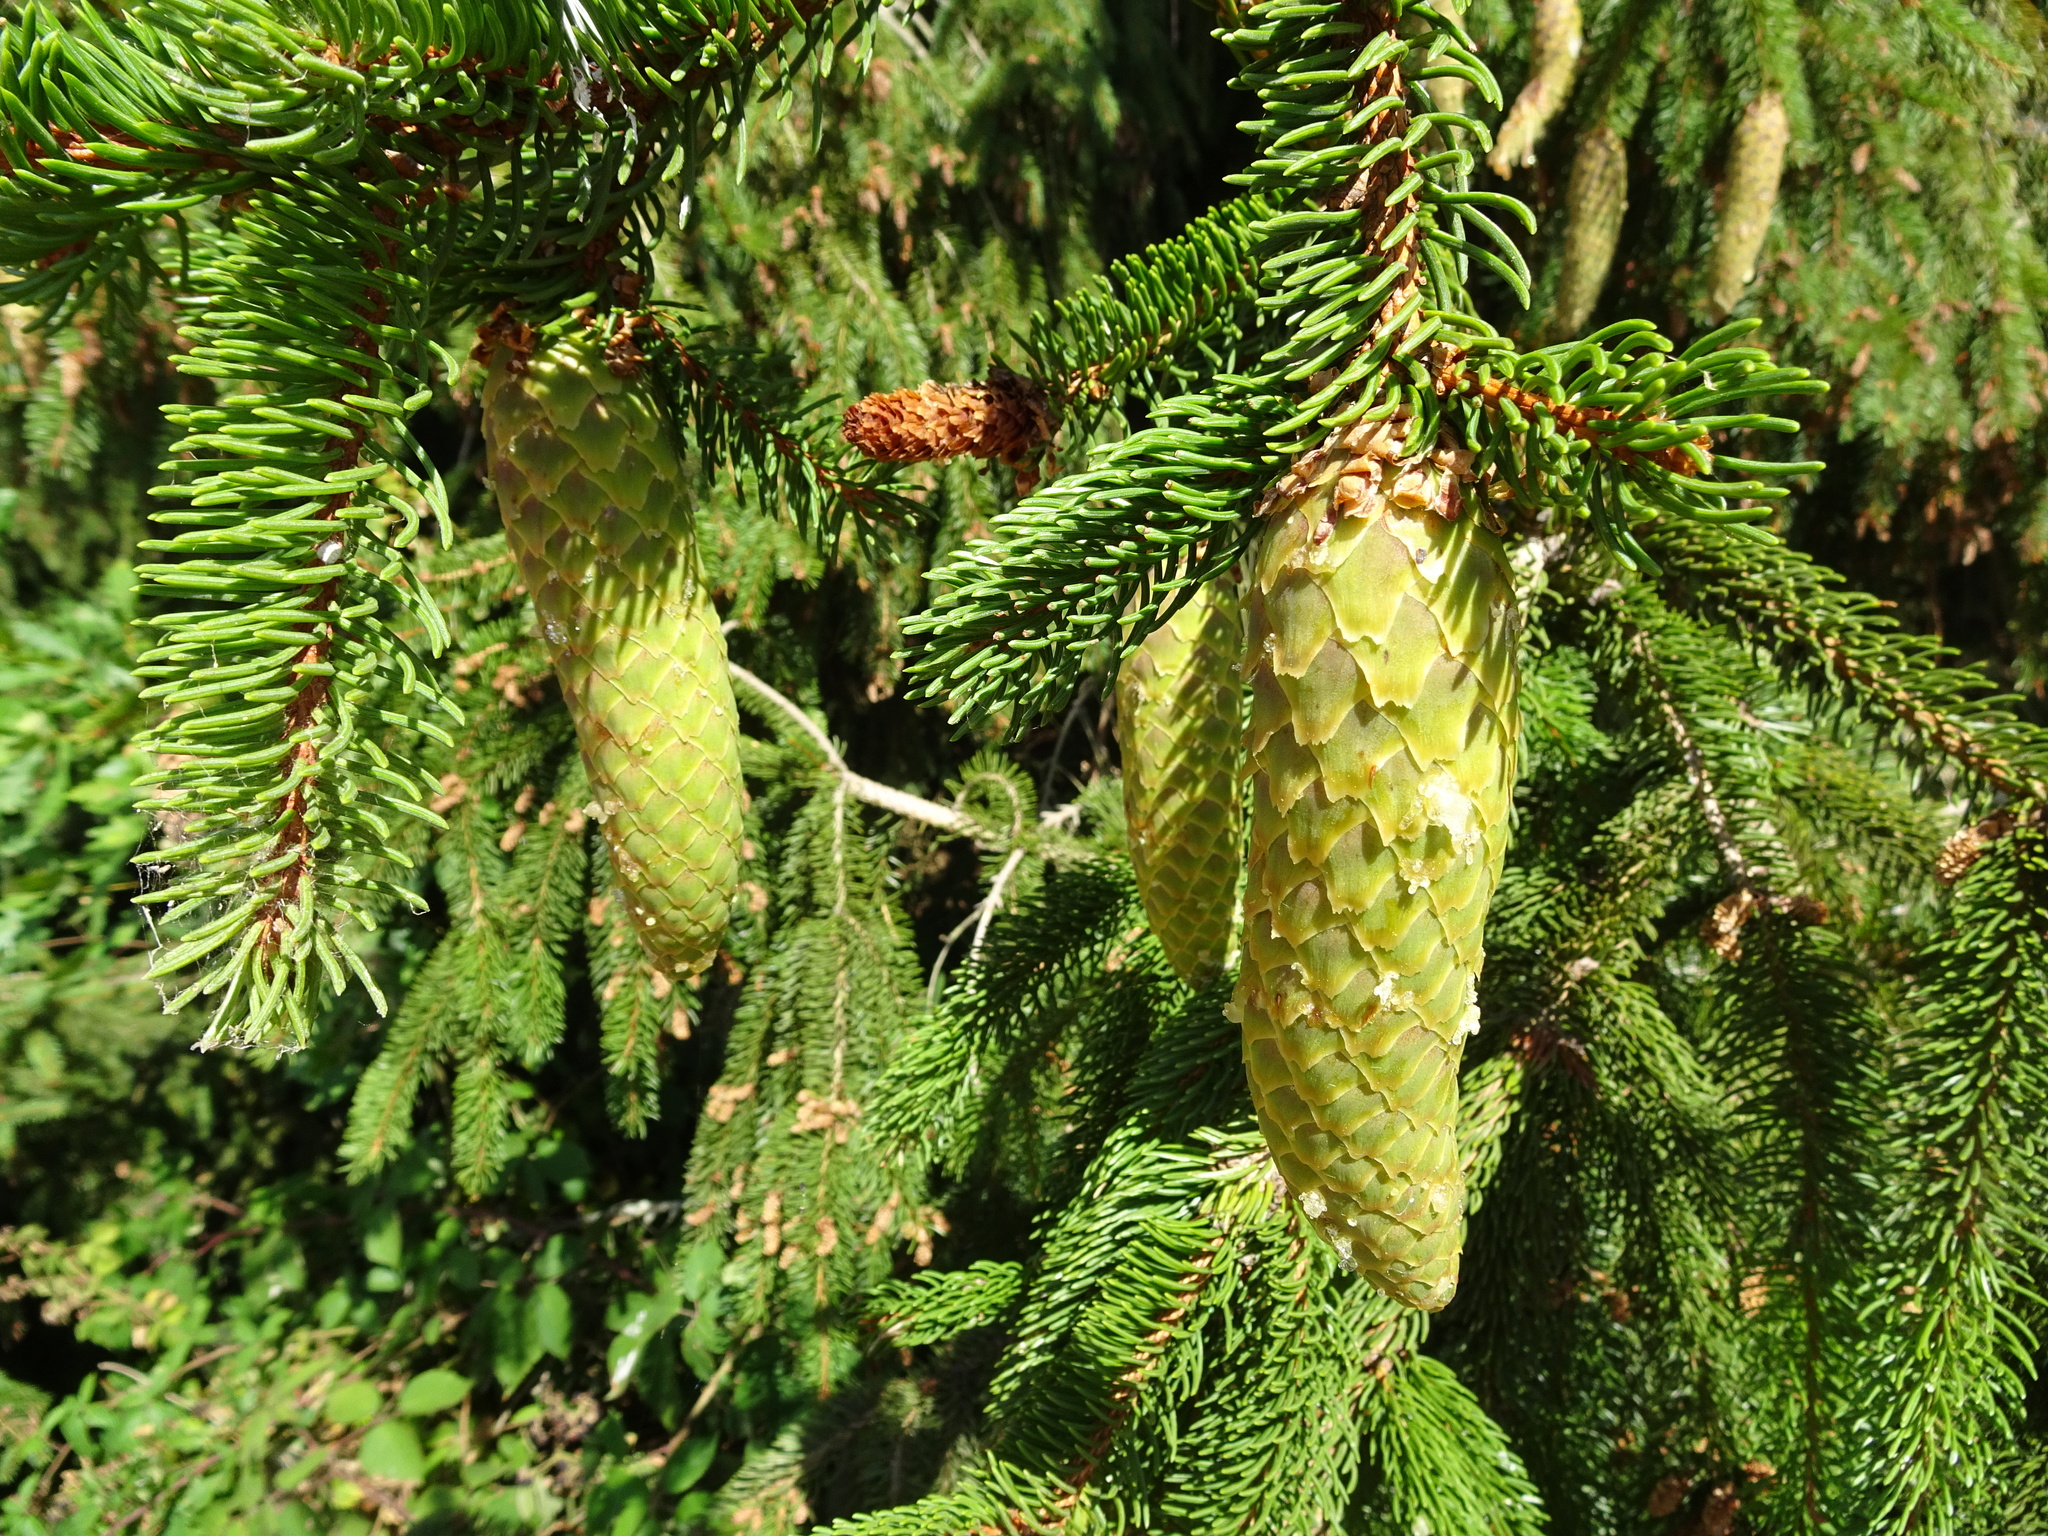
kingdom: Plantae
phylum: Tracheophyta
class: Pinopsida
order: Pinales
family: Pinaceae
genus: Picea
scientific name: Picea abies
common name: Norway spruce
